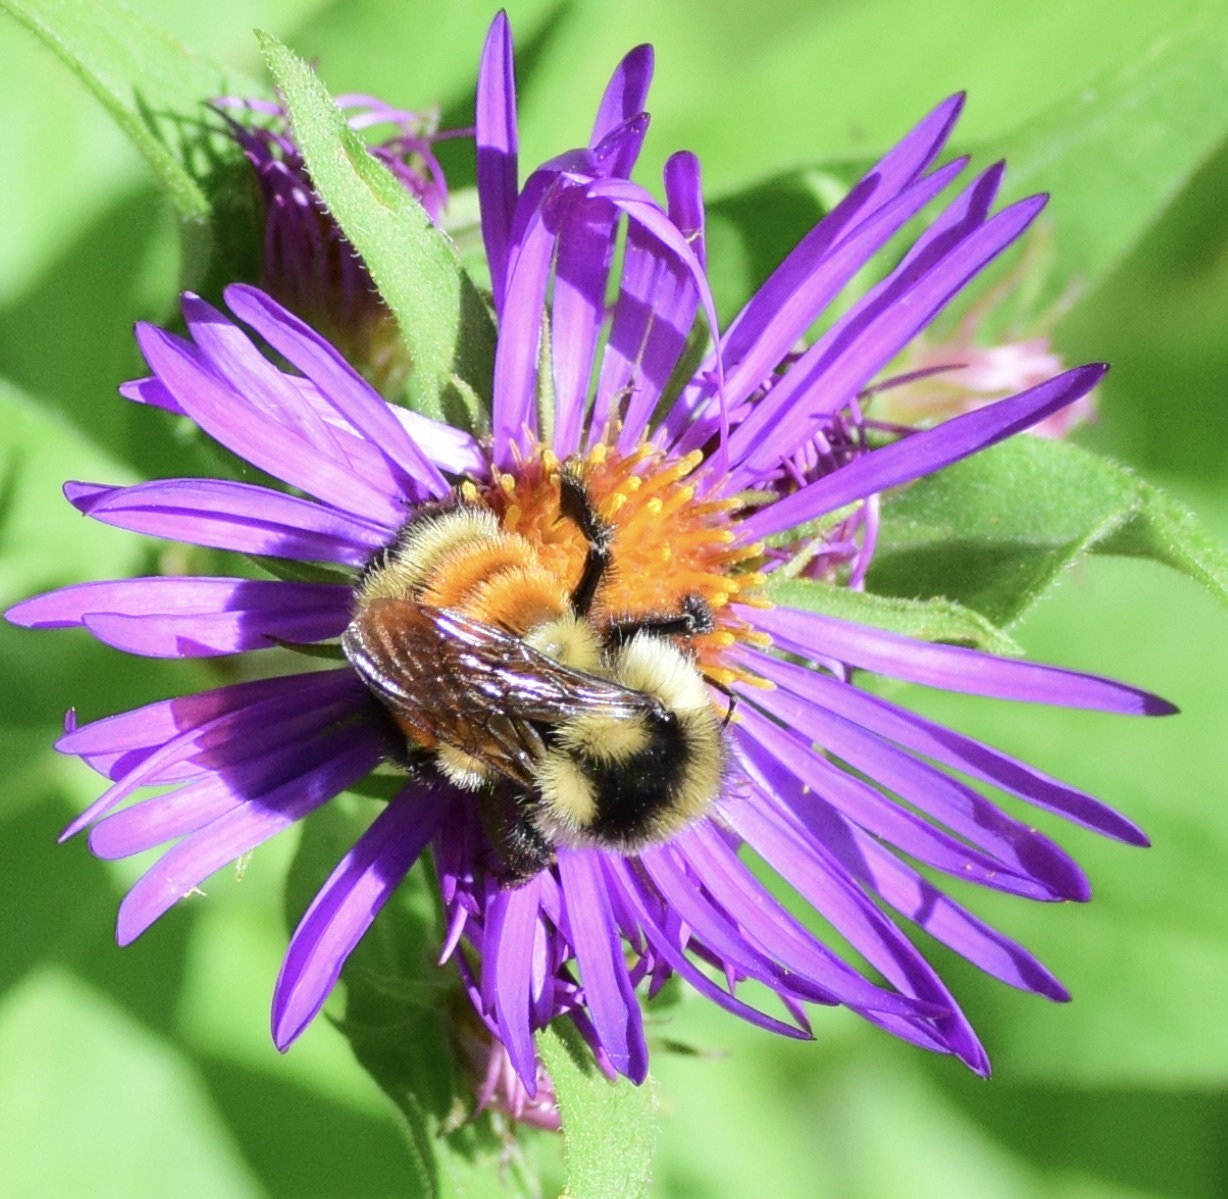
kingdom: Animalia
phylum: Arthropoda
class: Insecta
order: Hymenoptera
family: Apidae
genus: Bombus
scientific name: Bombus ternarius
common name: Tri-colored bumble bee
